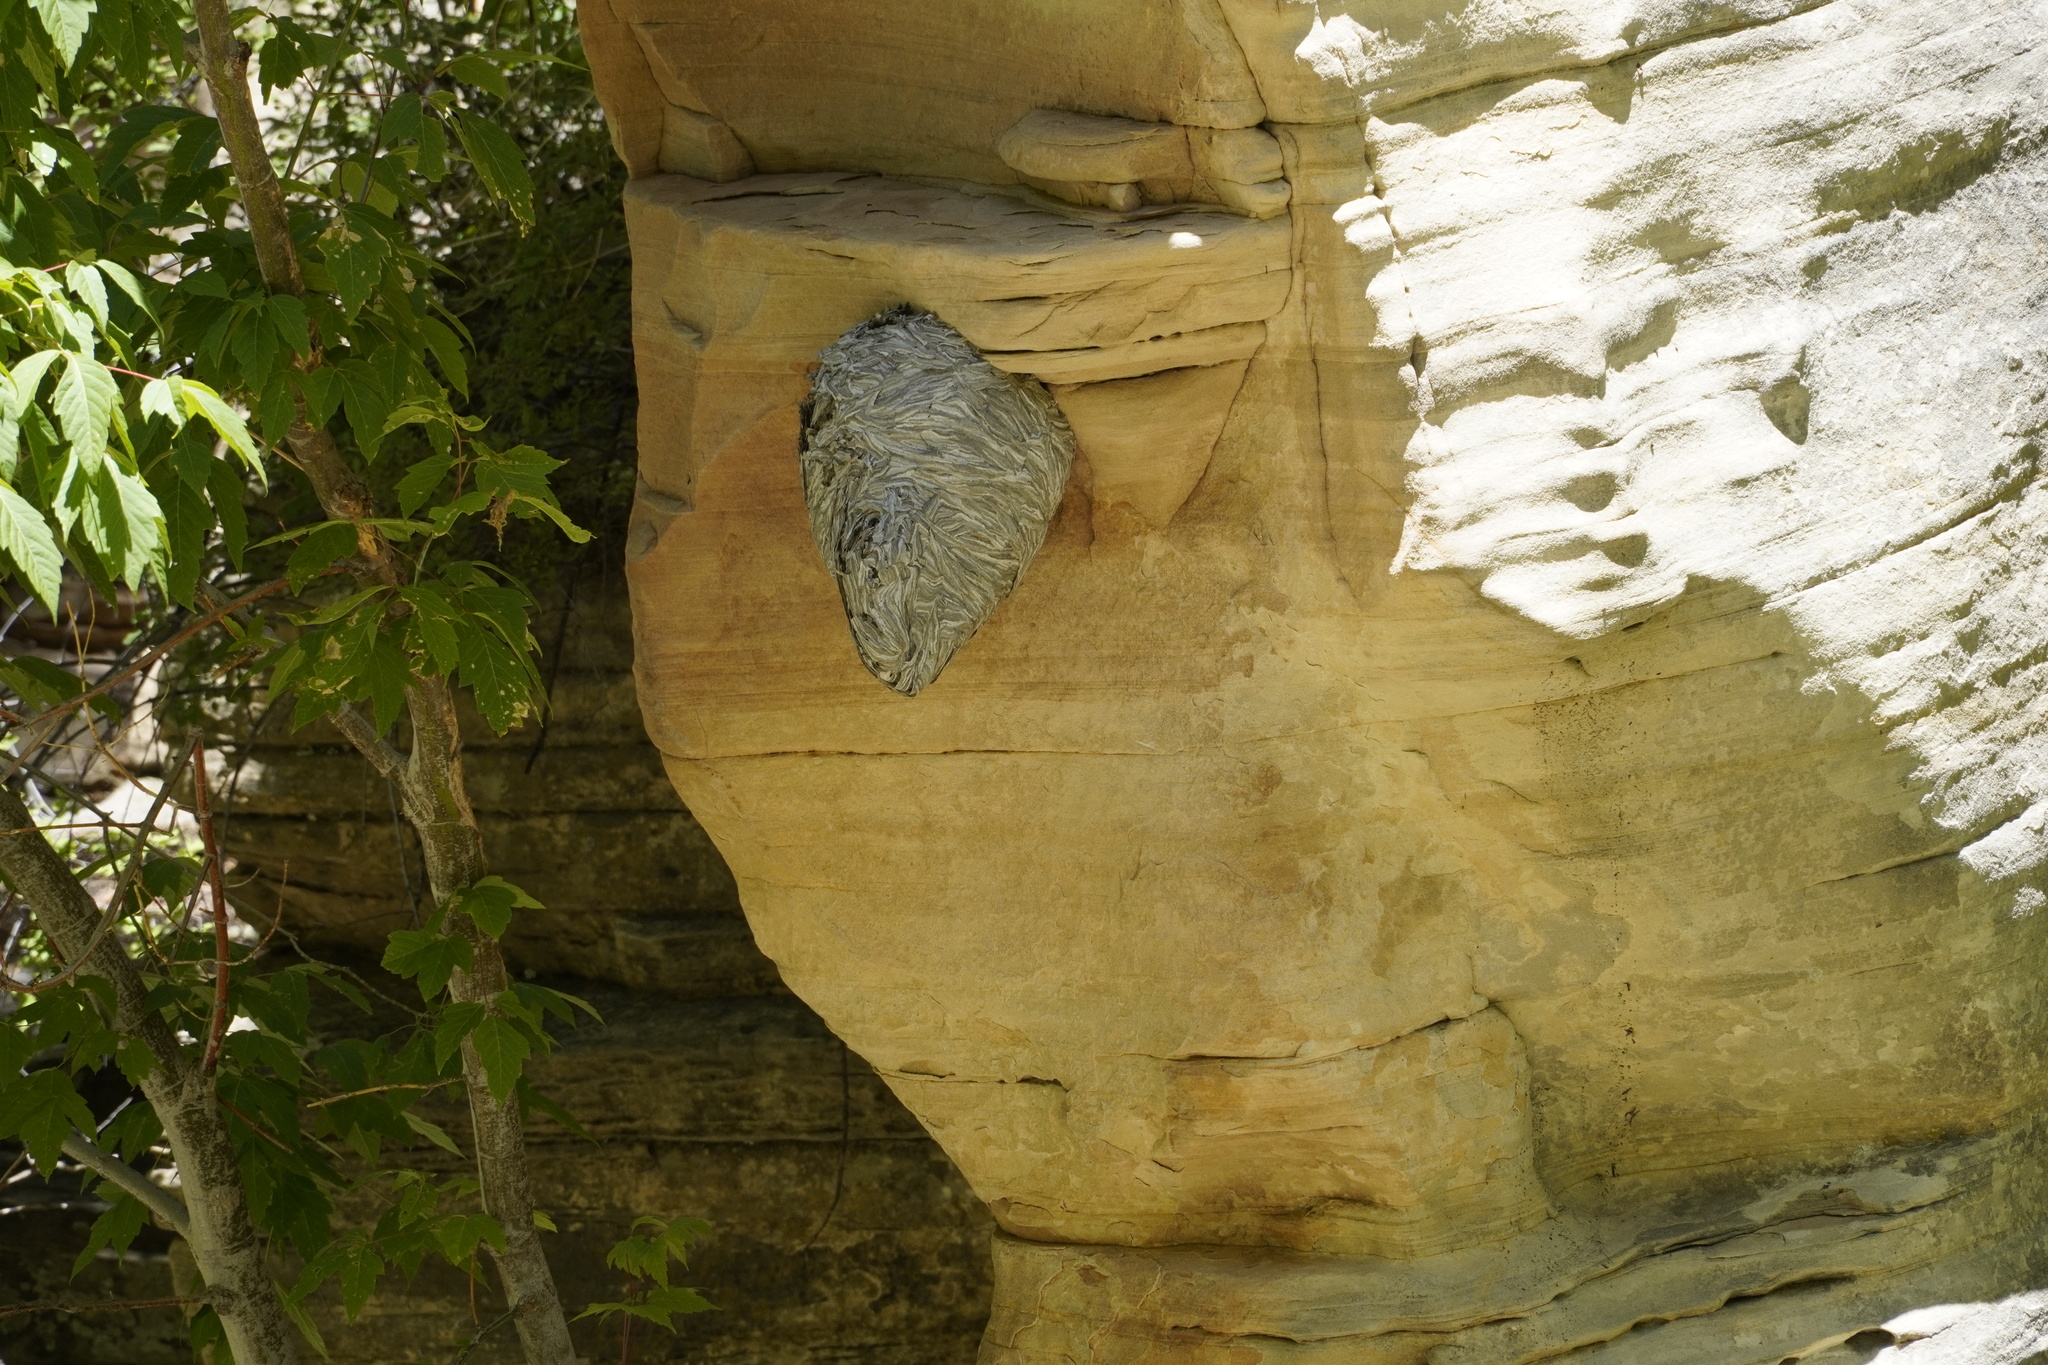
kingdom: Animalia
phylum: Arthropoda
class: Insecta
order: Hymenoptera
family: Vespidae
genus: Dolichovespula
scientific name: Dolichovespula
